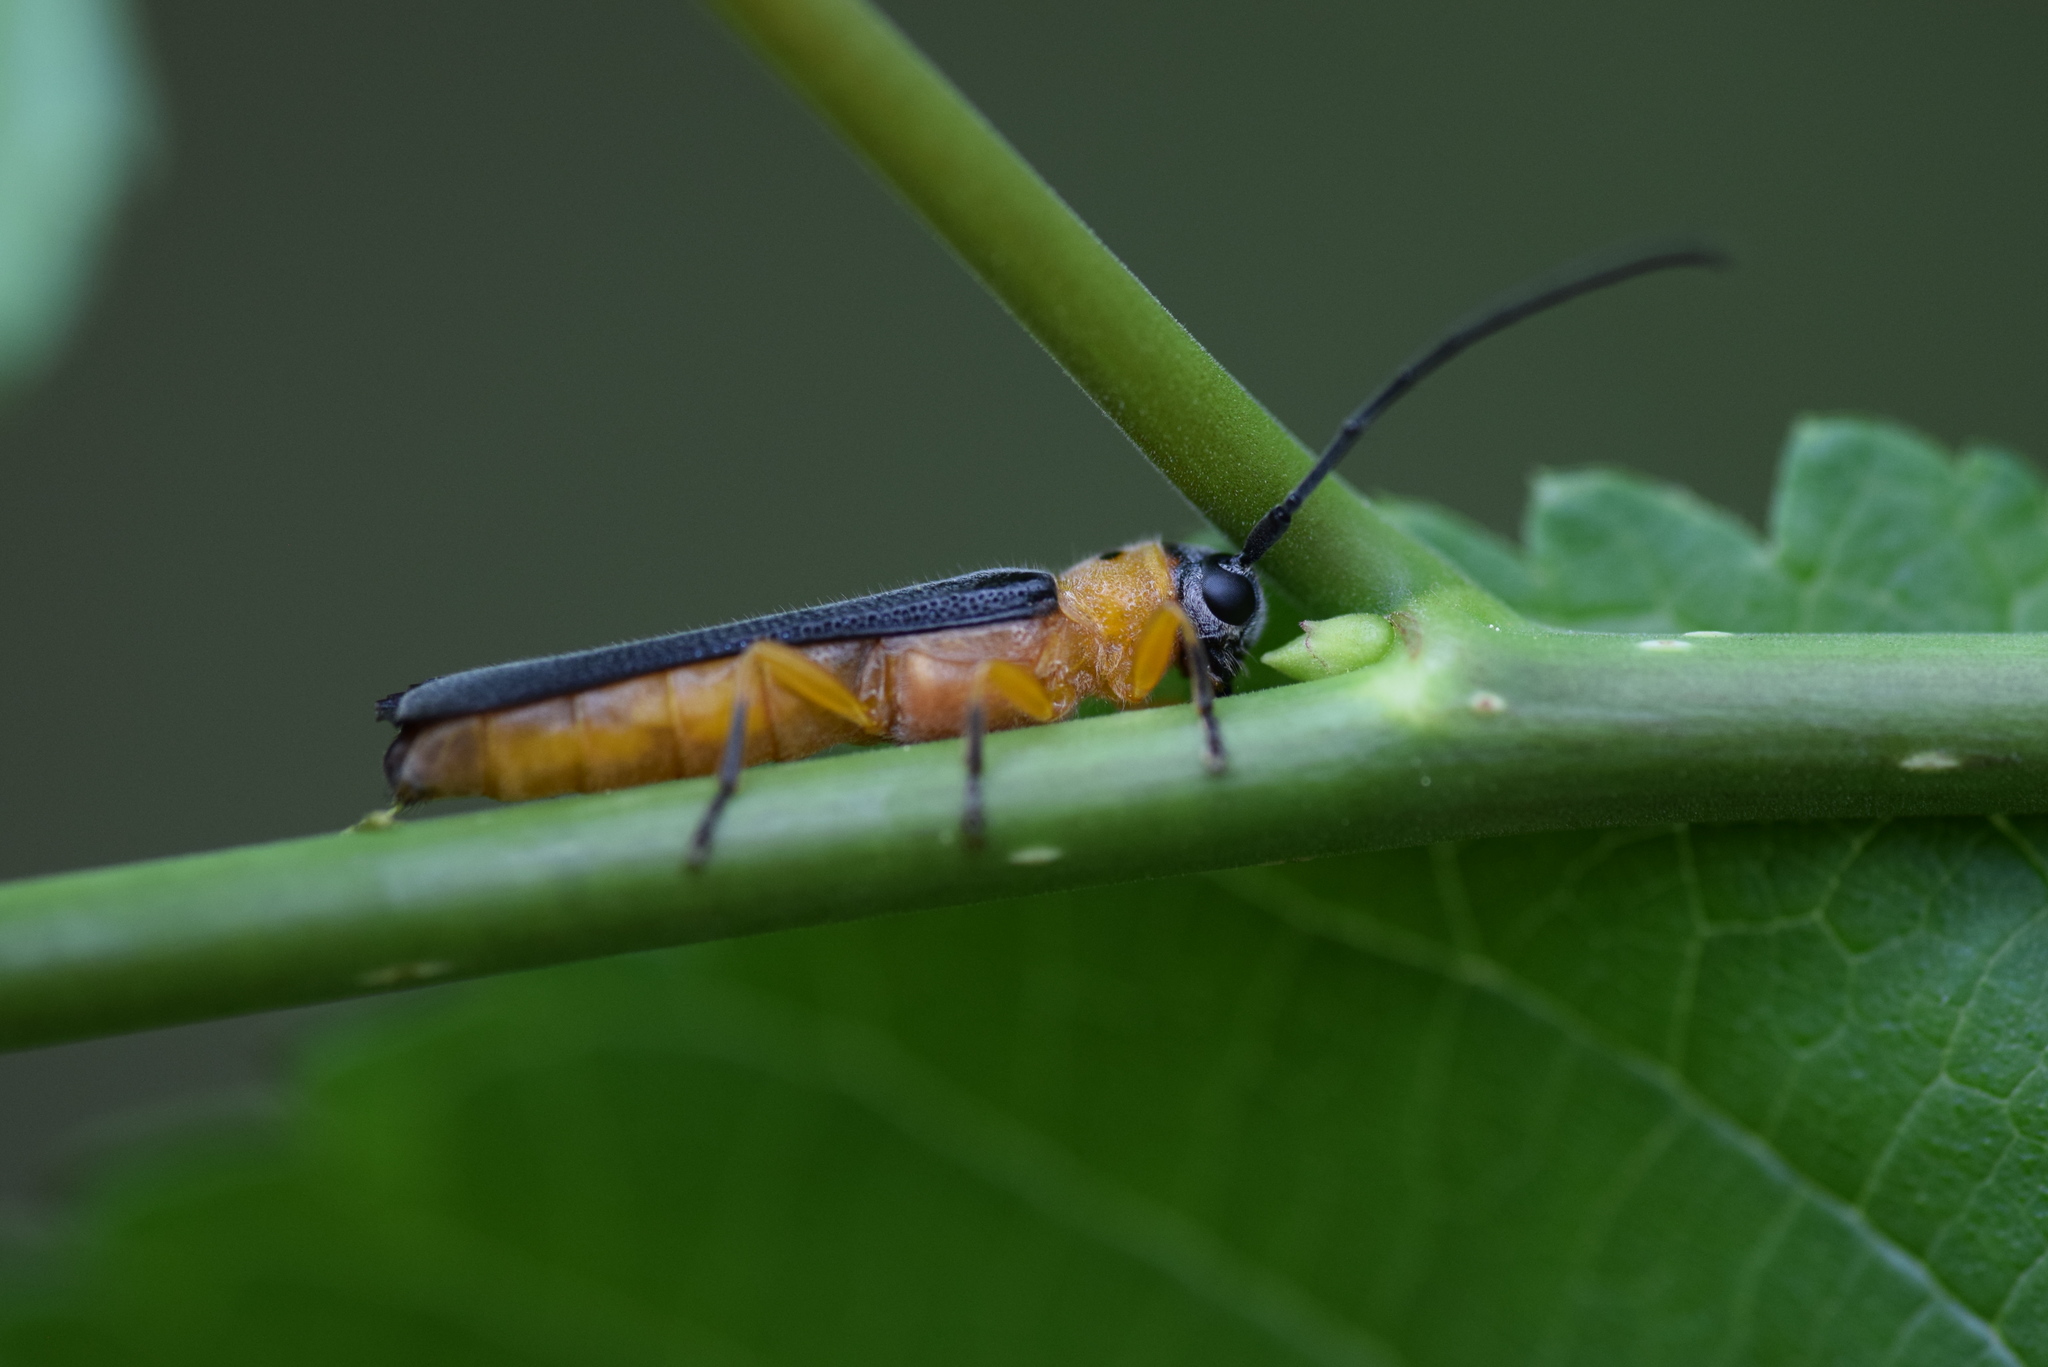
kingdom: Animalia
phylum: Arthropoda
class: Insecta
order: Coleoptera
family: Cerambycidae
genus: Oberea
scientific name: Oberea ulmicola
